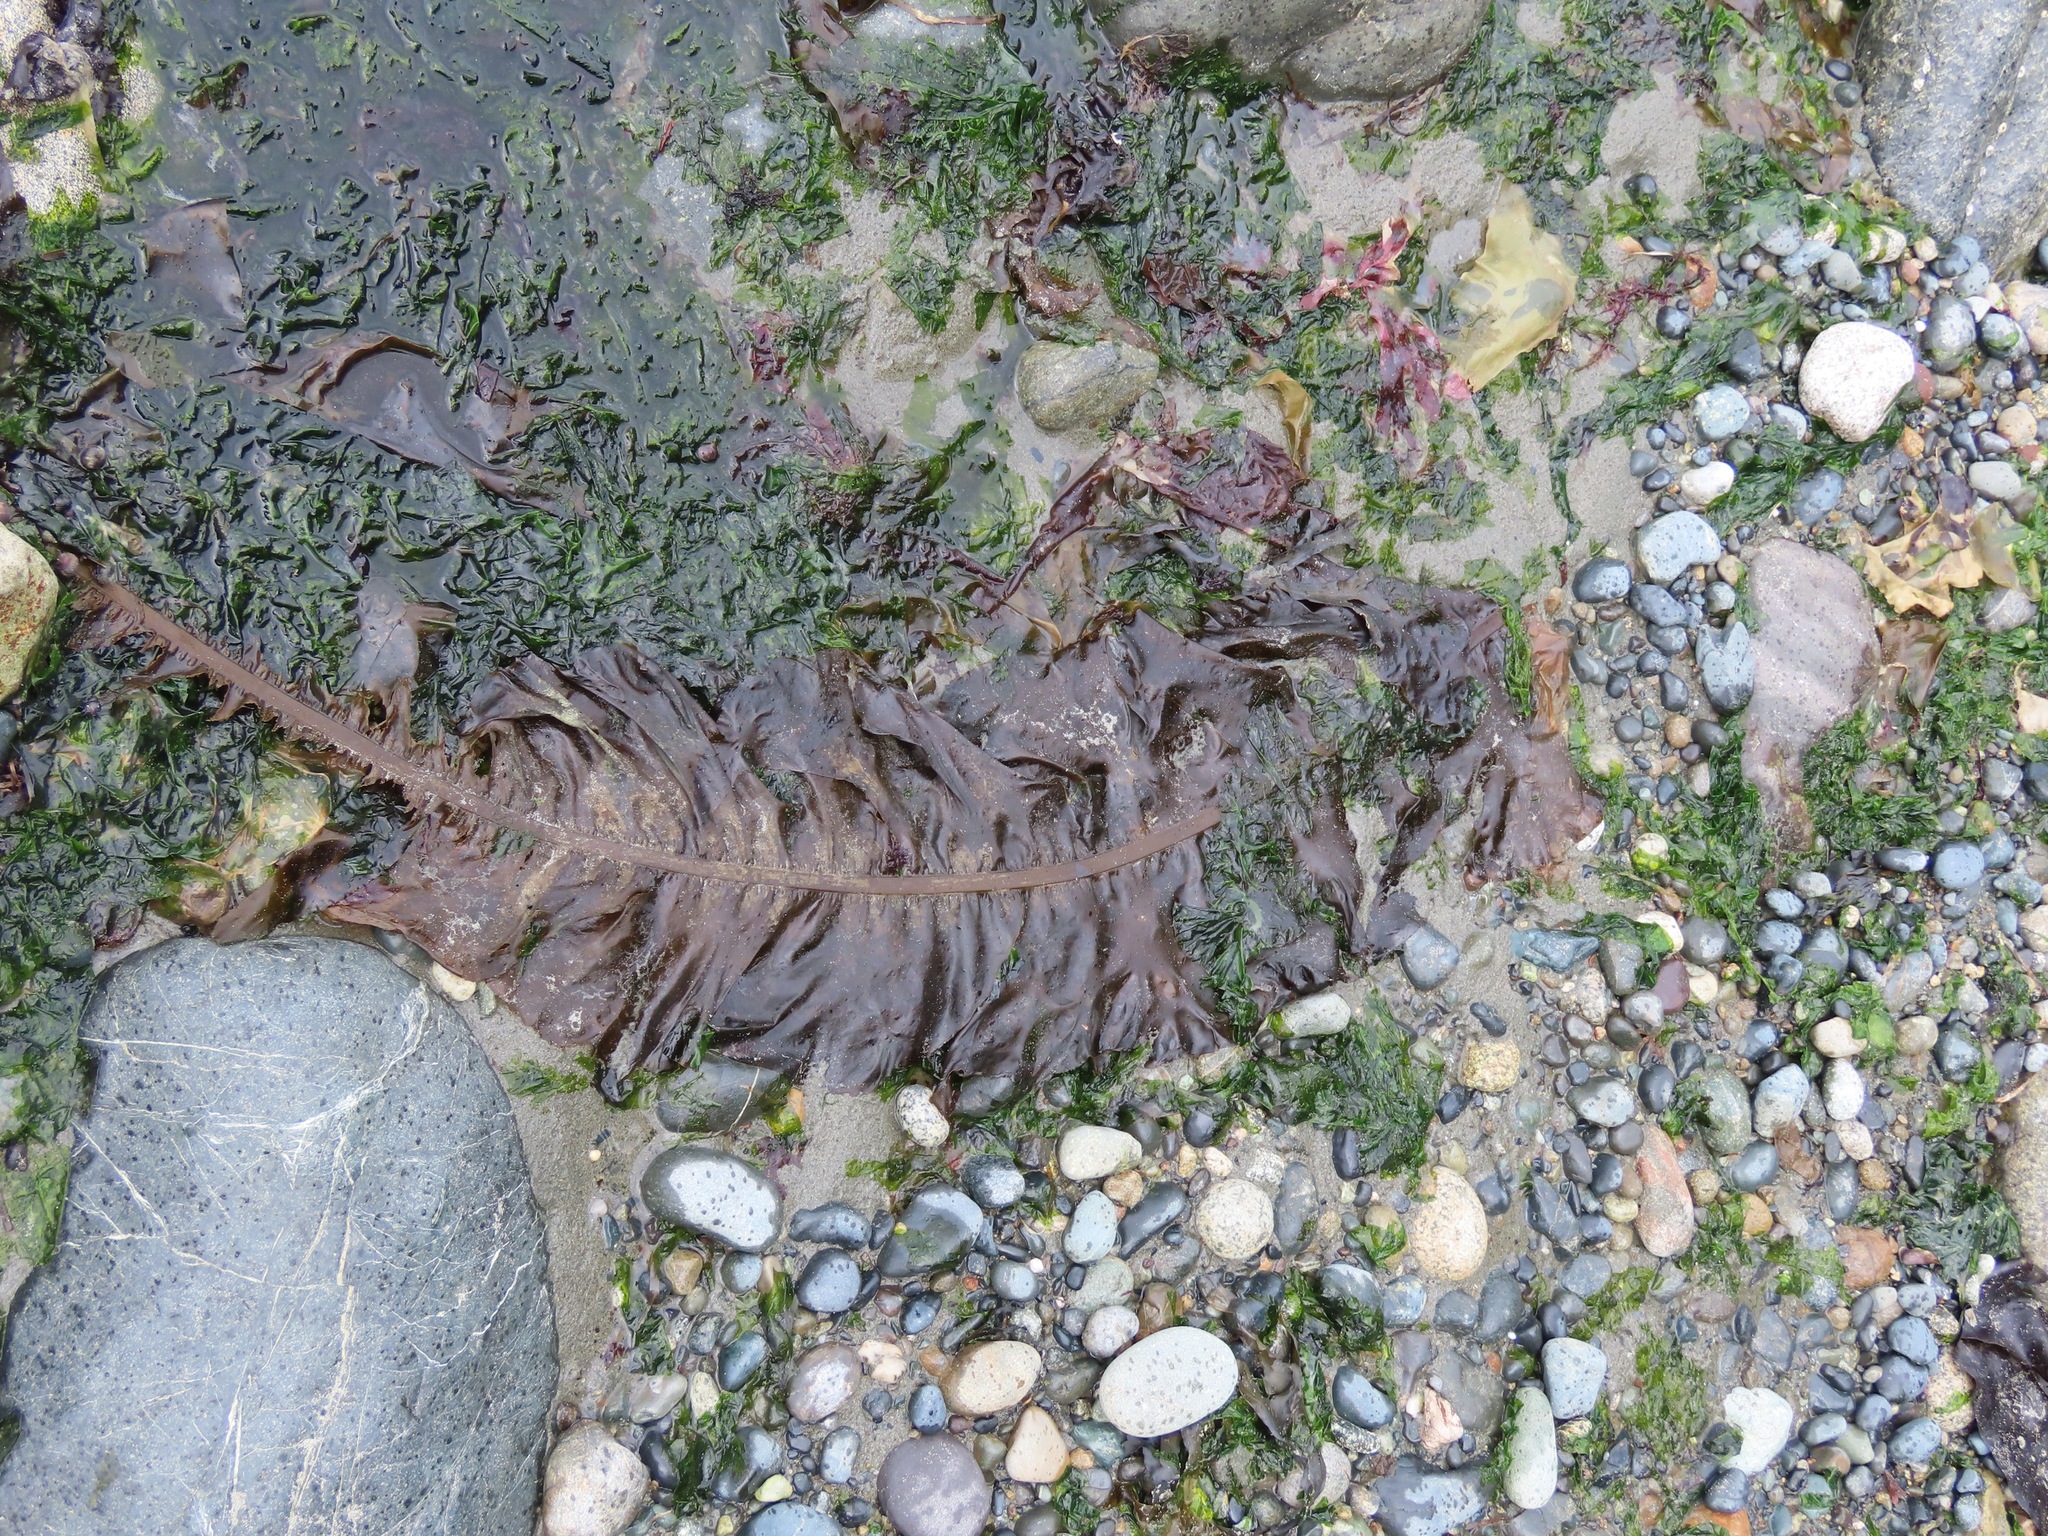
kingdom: Chromista
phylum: Ochrophyta
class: Phaeophyceae
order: Laminariales
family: Alariaceae
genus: Alaria
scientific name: Alaria marginata
